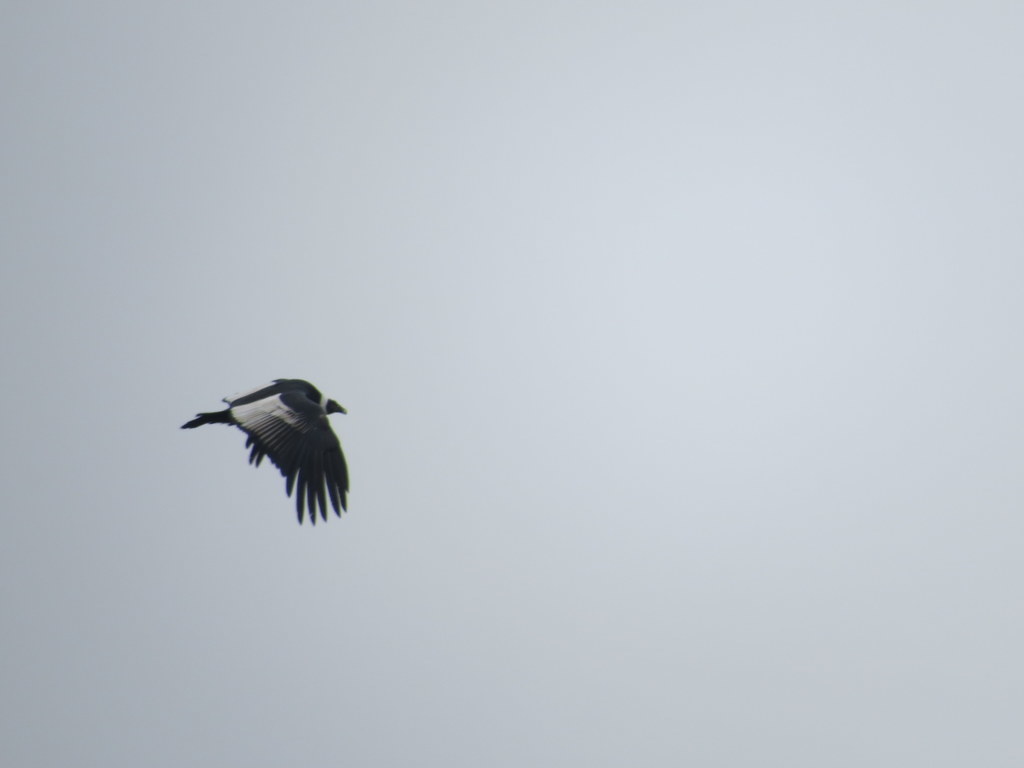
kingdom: Animalia
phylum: Chordata
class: Aves
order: Accipitriformes
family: Cathartidae
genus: Vultur
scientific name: Vultur gryphus
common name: Andean condor
